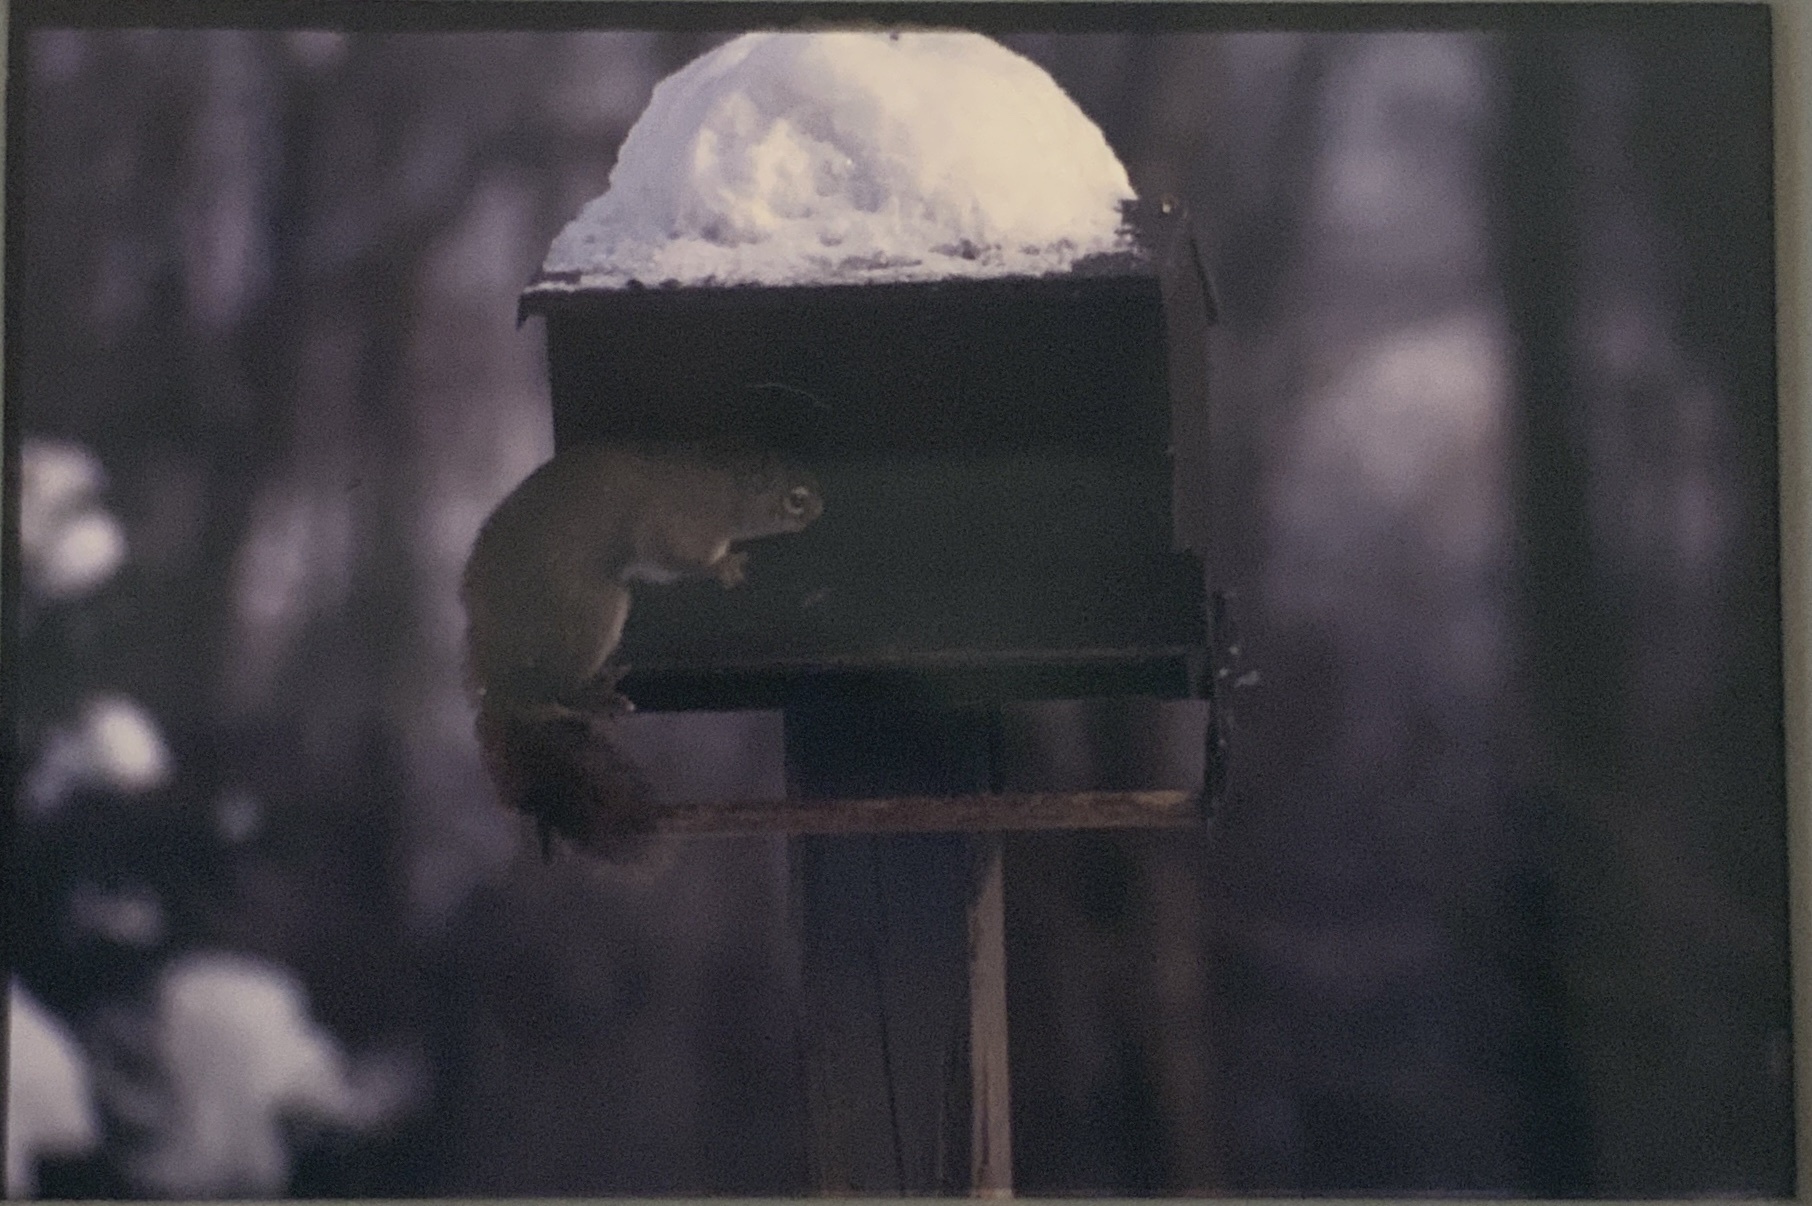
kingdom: Animalia
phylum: Chordata
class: Mammalia
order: Rodentia
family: Sciuridae
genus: Tamiasciurus
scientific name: Tamiasciurus hudsonicus
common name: Red squirrel
